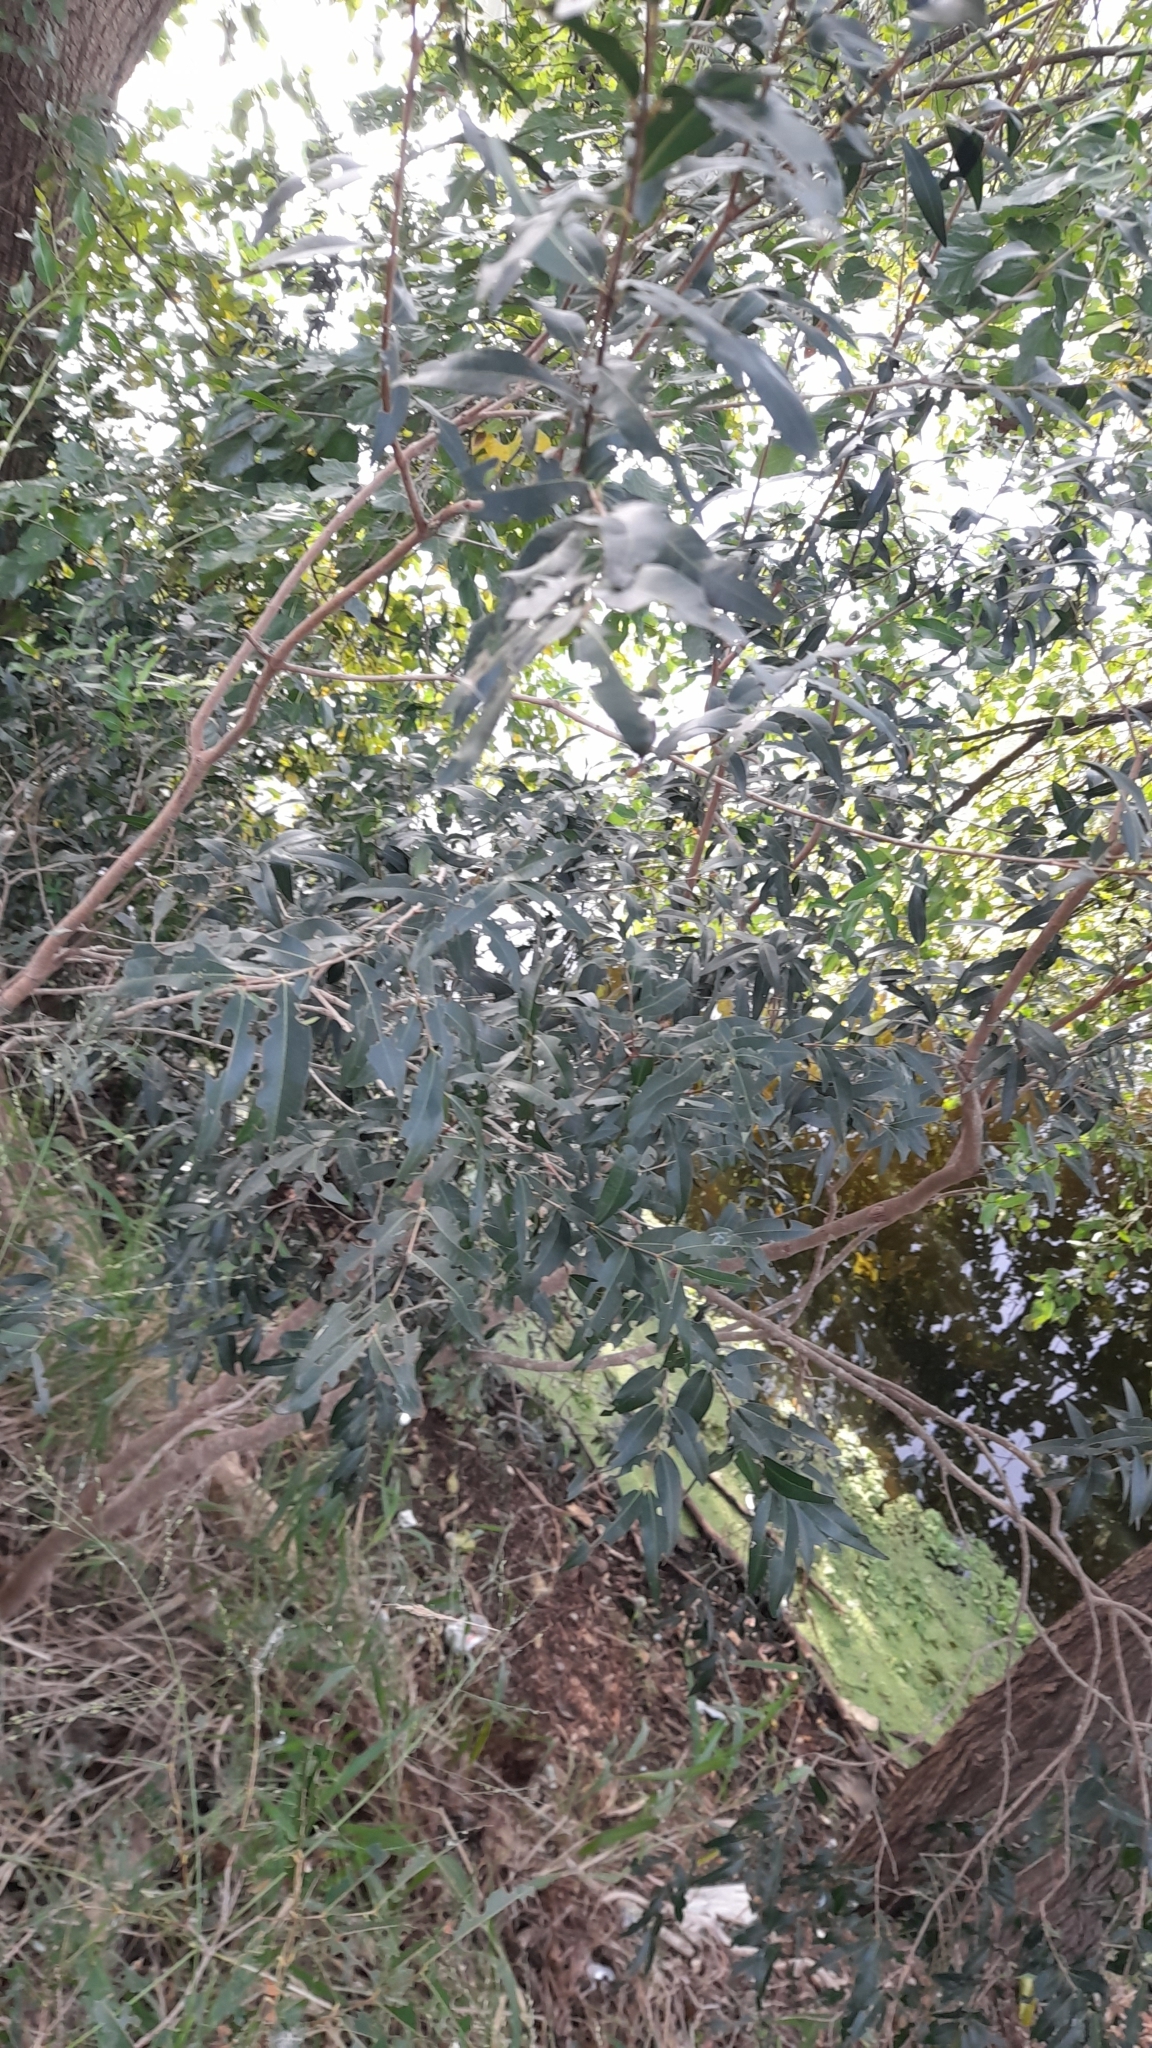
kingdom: Plantae
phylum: Tracheophyta
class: Magnoliopsida
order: Myrtales
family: Myrtaceae
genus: Blepharocalyx
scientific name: Blepharocalyx salicifolius
